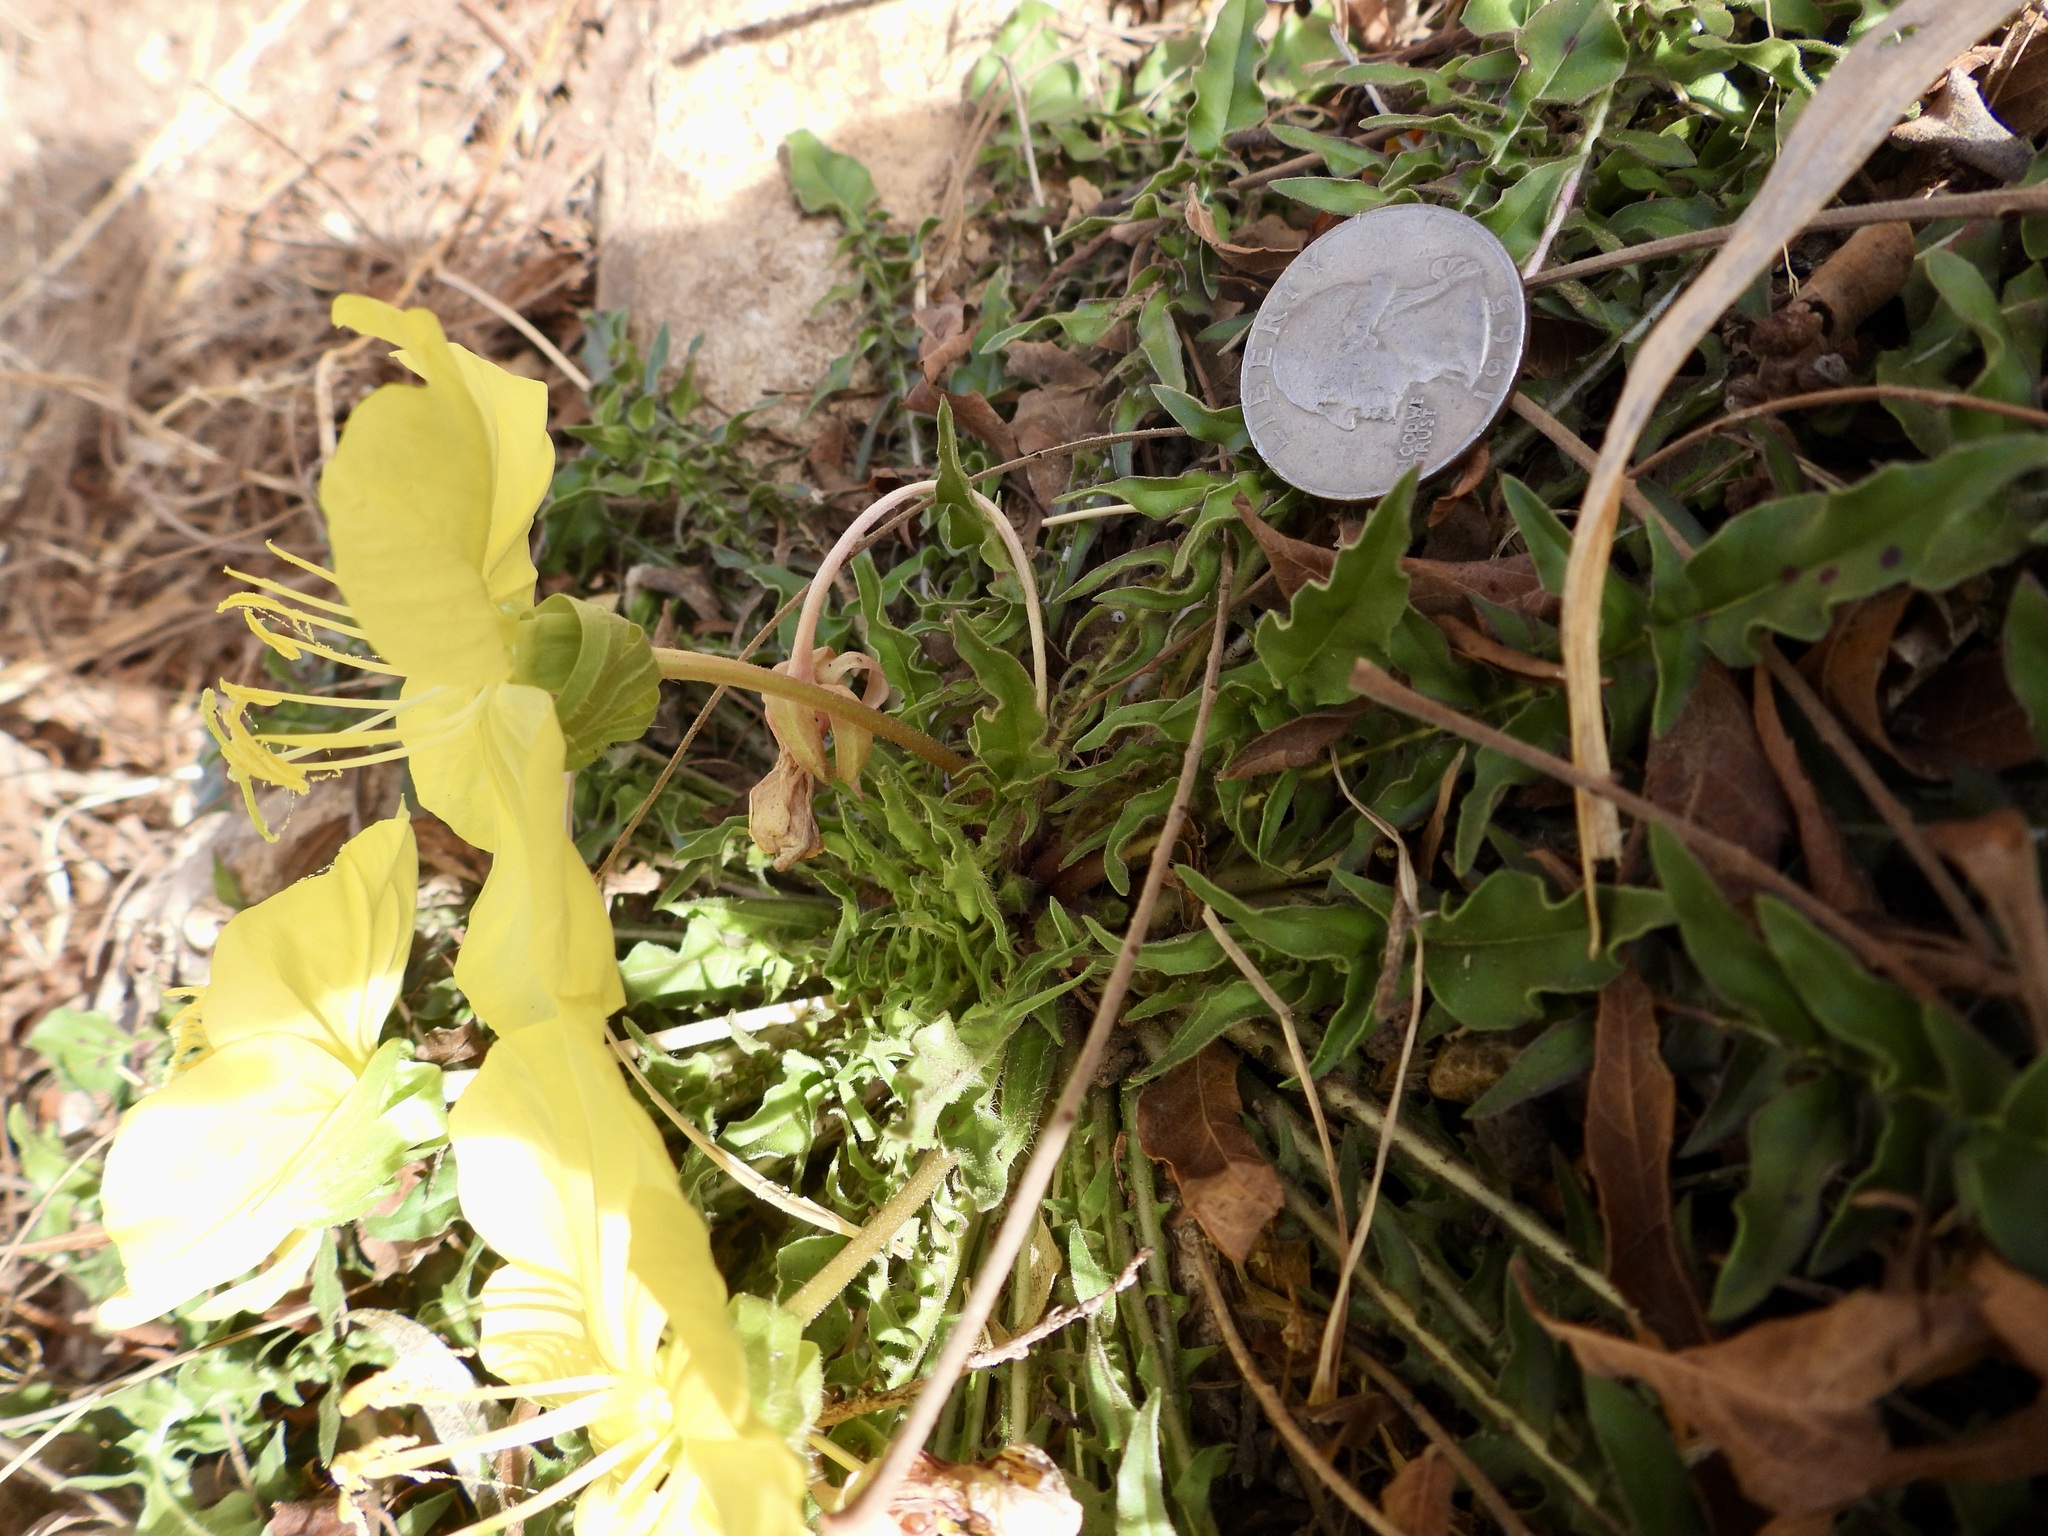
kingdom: Plantae
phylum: Tracheophyta
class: Magnoliopsida
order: Myrtales
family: Onagraceae
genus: Oenothera
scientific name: Oenothera triloba
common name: Sessile evening-primrose
